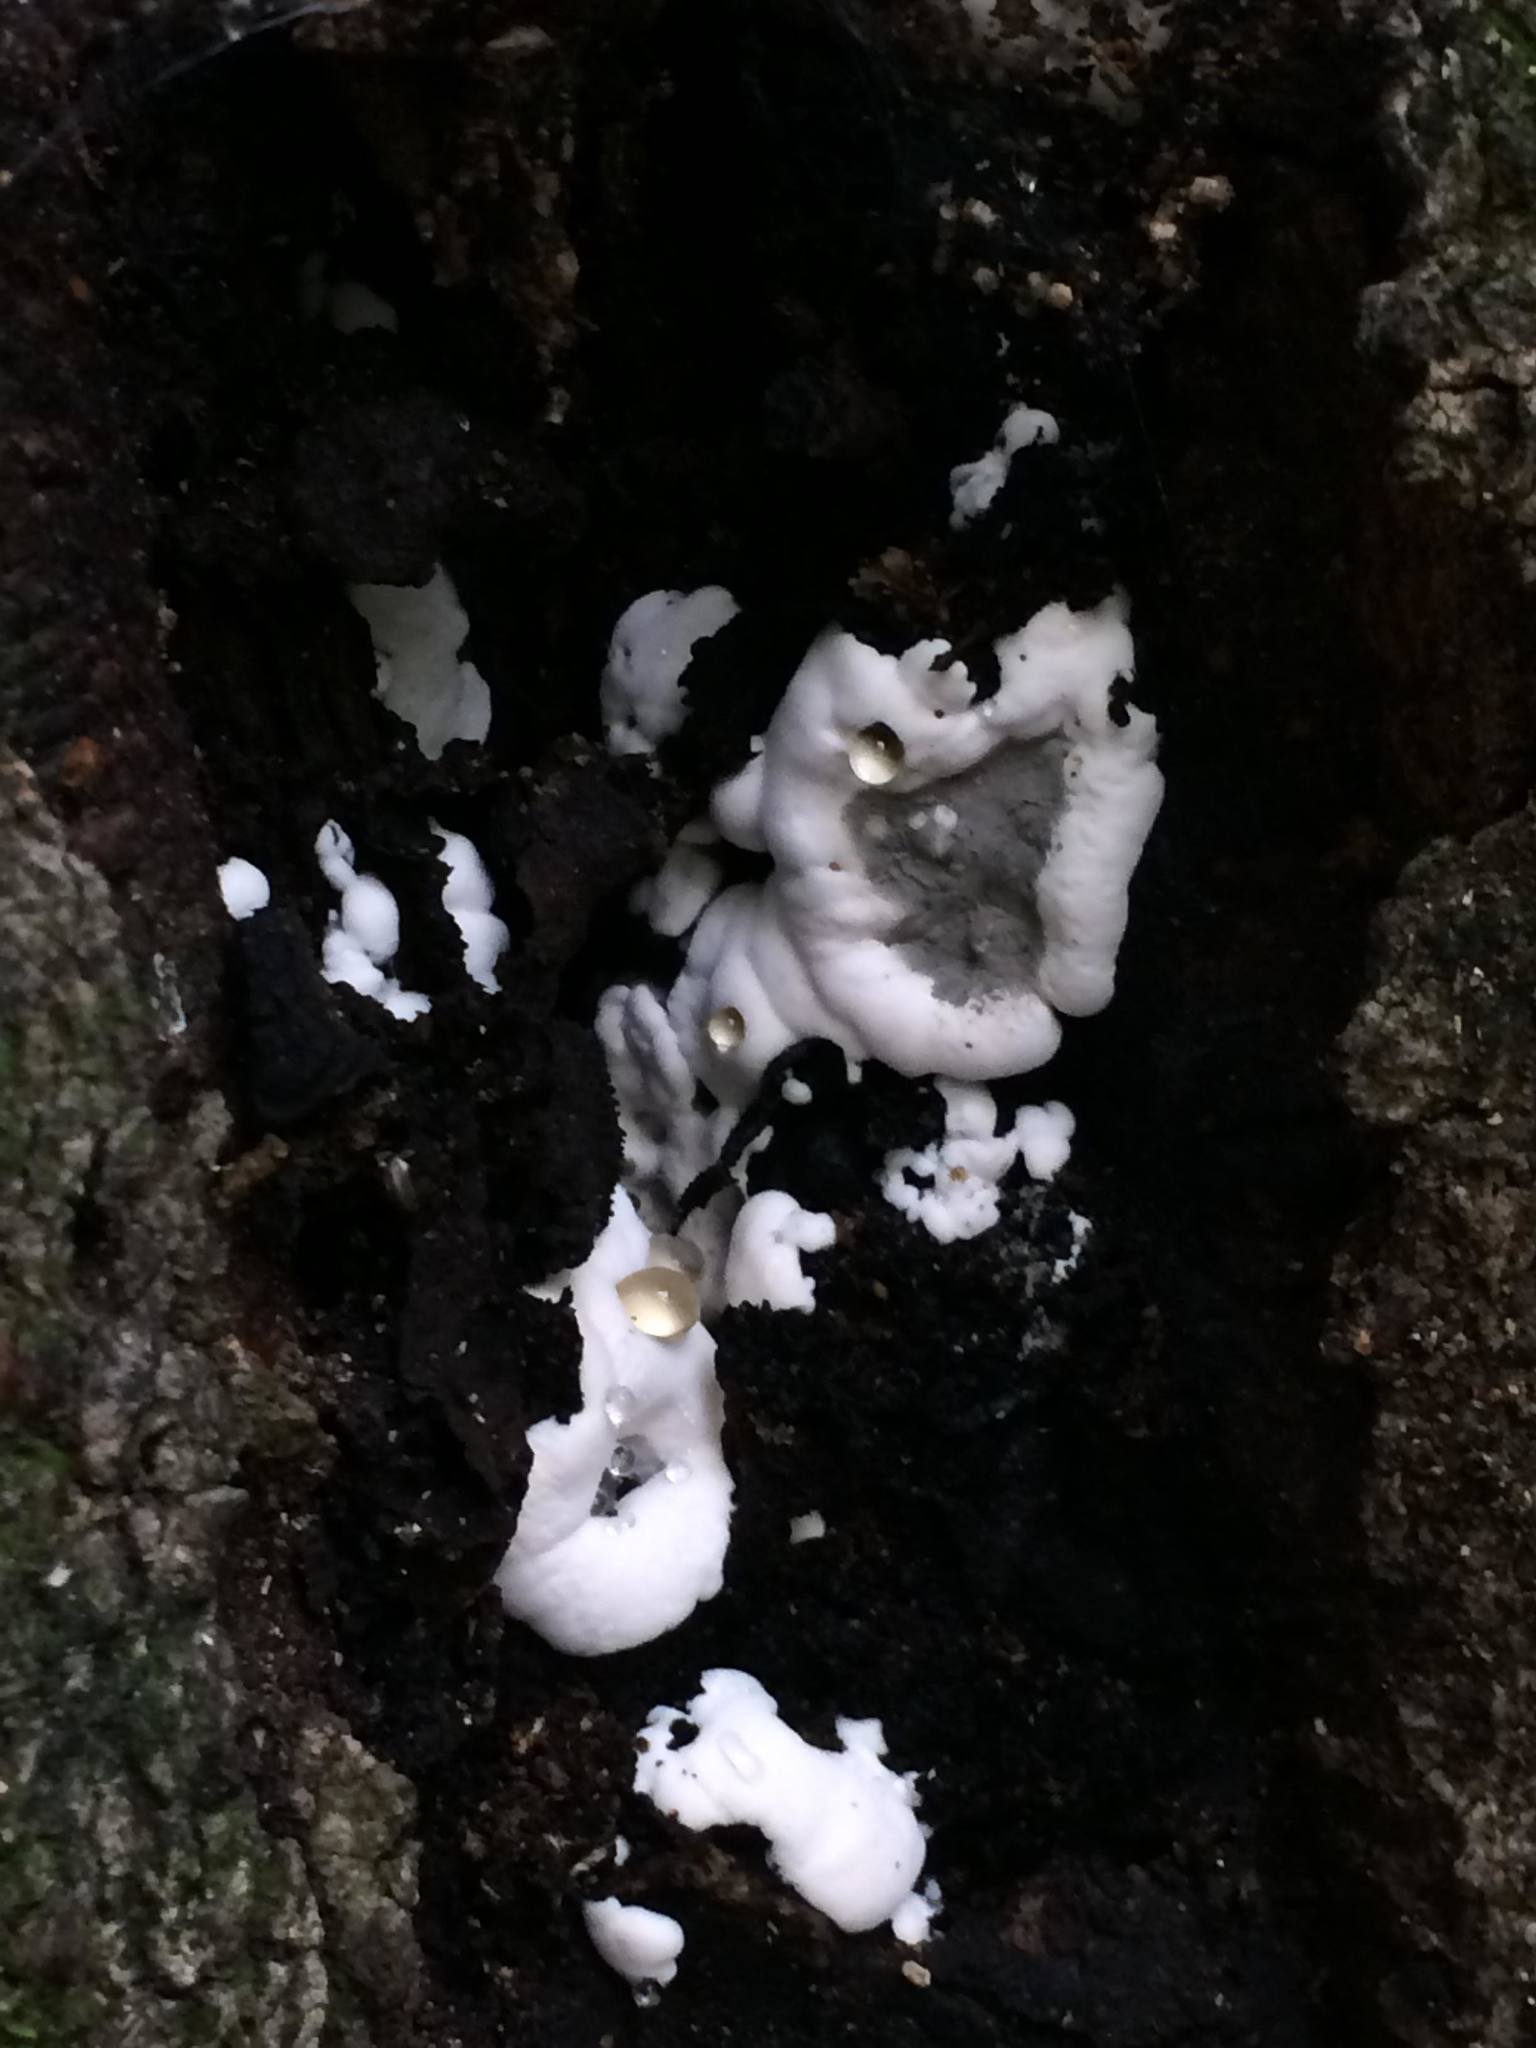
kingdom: Fungi
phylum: Ascomycota
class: Sordariomycetes
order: Xylariales
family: Xylariaceae
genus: Kretzschmaria
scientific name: Kretzschmaria deusta
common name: Brittle cinder
